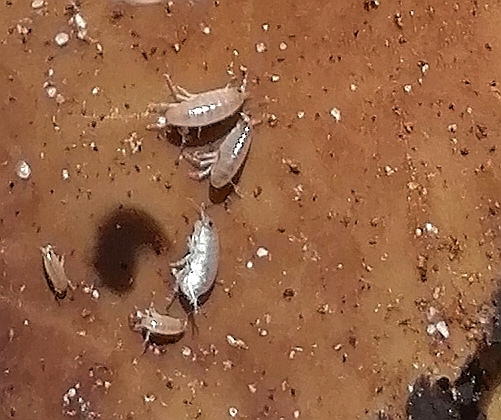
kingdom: Animalia
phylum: Arthropoda
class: Malacostraca
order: Amphipoda
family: Talitridae
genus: Capeorchestia
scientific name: Capeorchestia capensis
